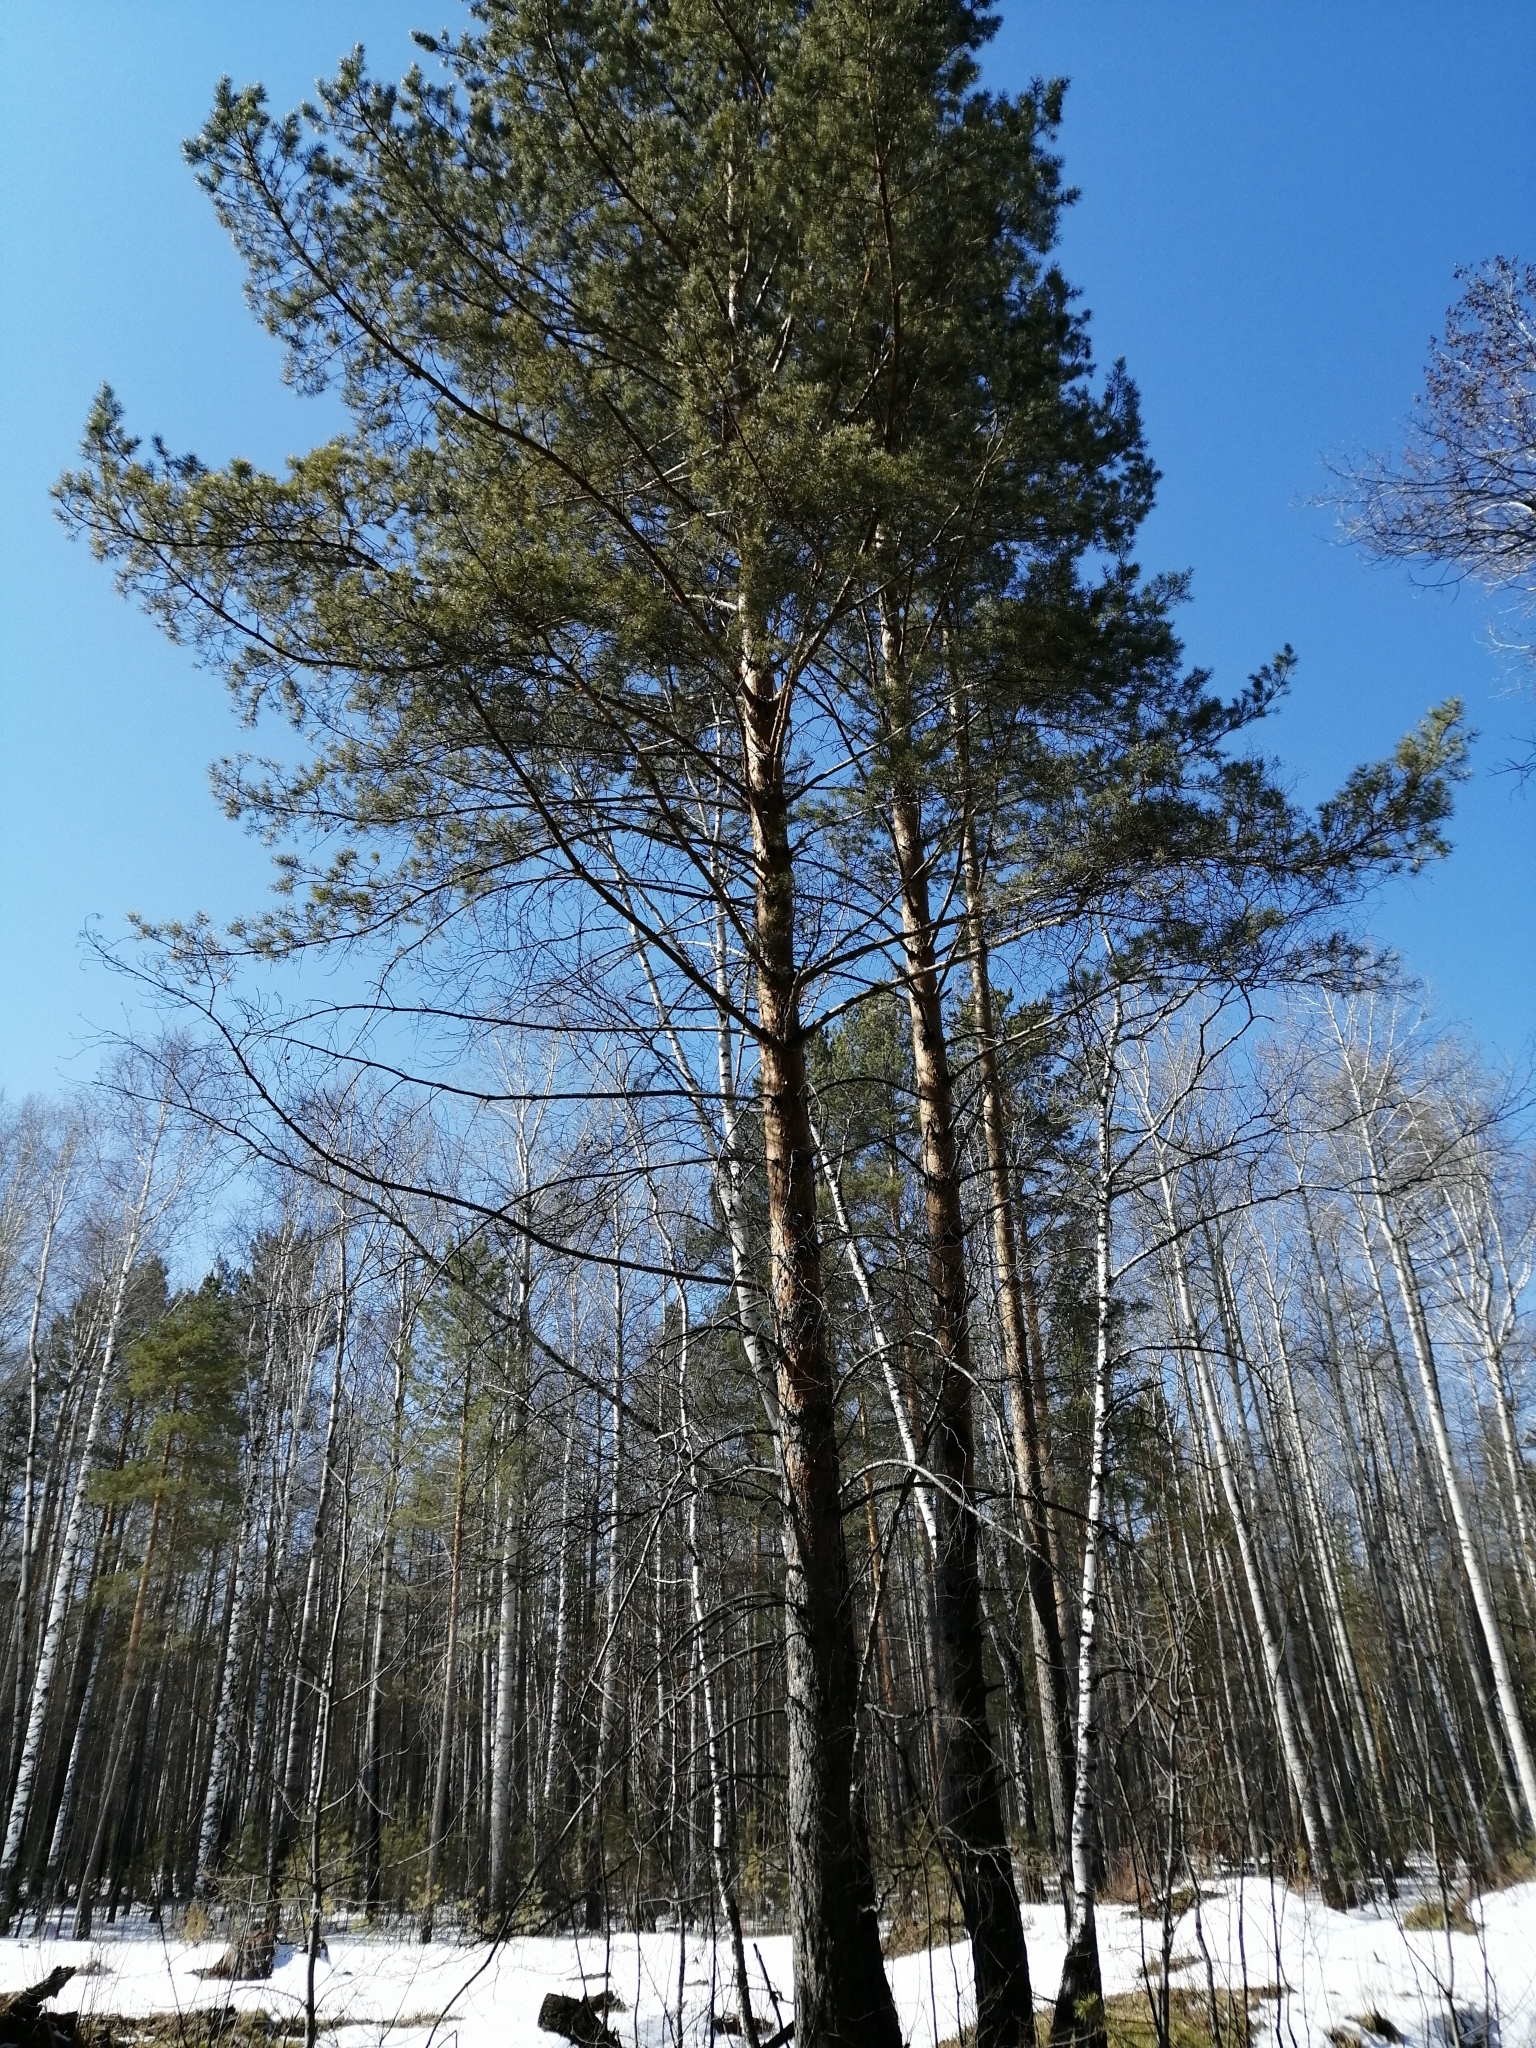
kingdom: Plantae
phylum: Tracheophyta
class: Pinopsida
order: Pinales
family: Pinaceae
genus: Pinus
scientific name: Pinus sylvestris
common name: Scots pine
